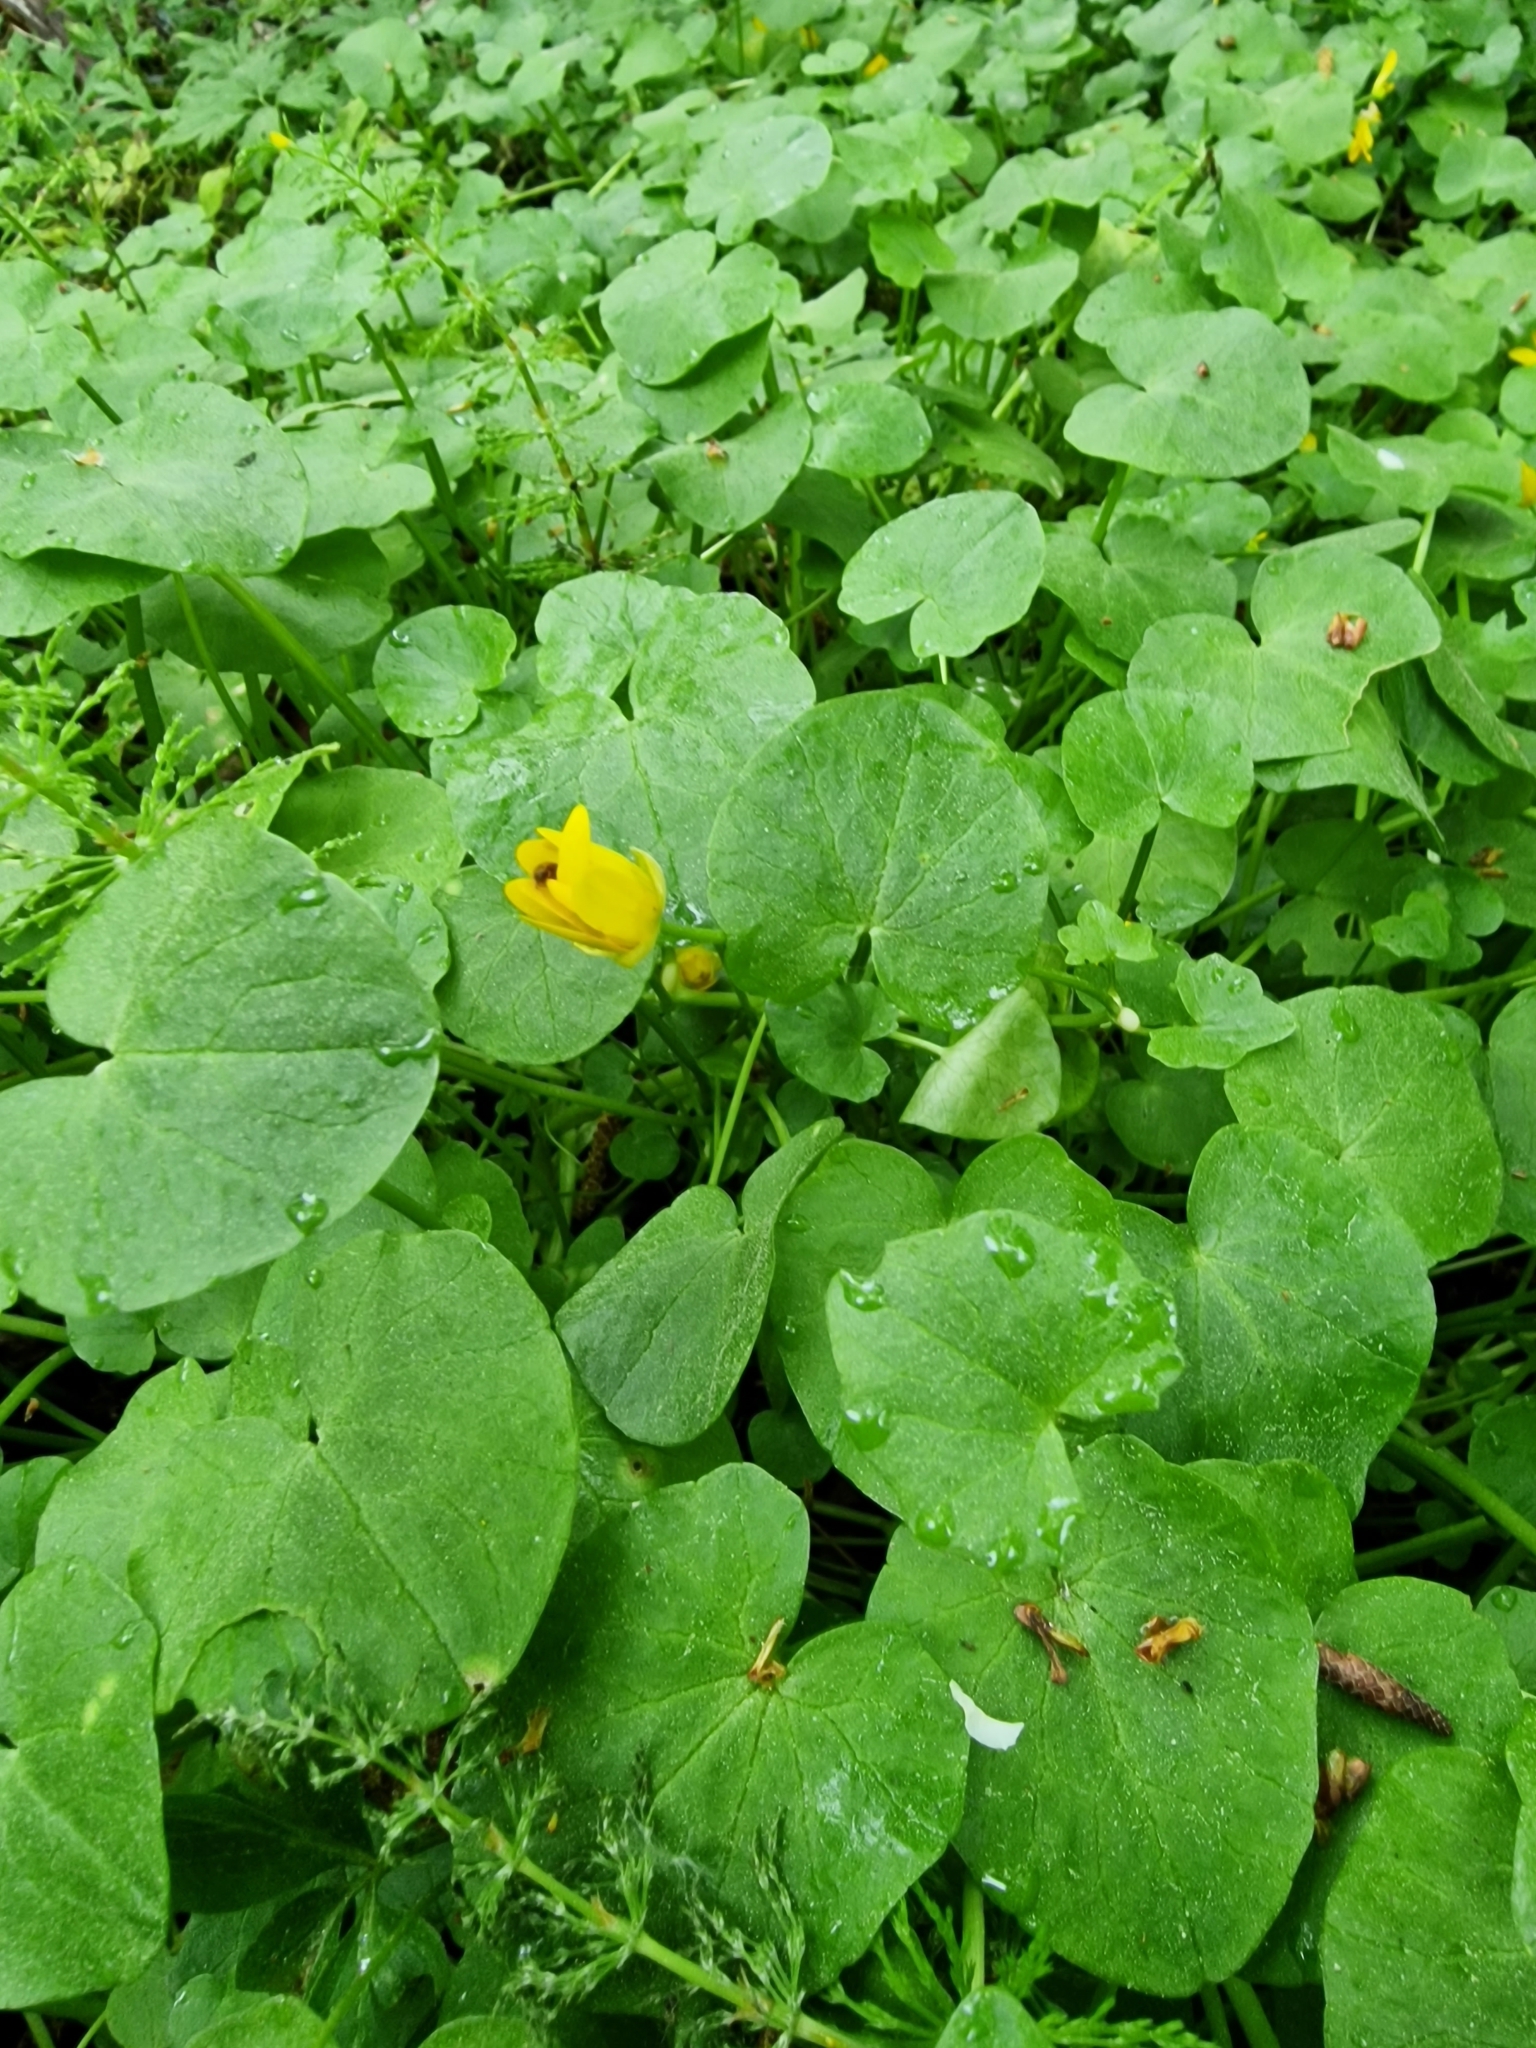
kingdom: Plantae
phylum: Tracheophyta
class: Magnoliopsida
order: Ranunculales
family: Ranunculaceae
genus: Ficaria
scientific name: Ficaria verna
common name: Lesser celandine
